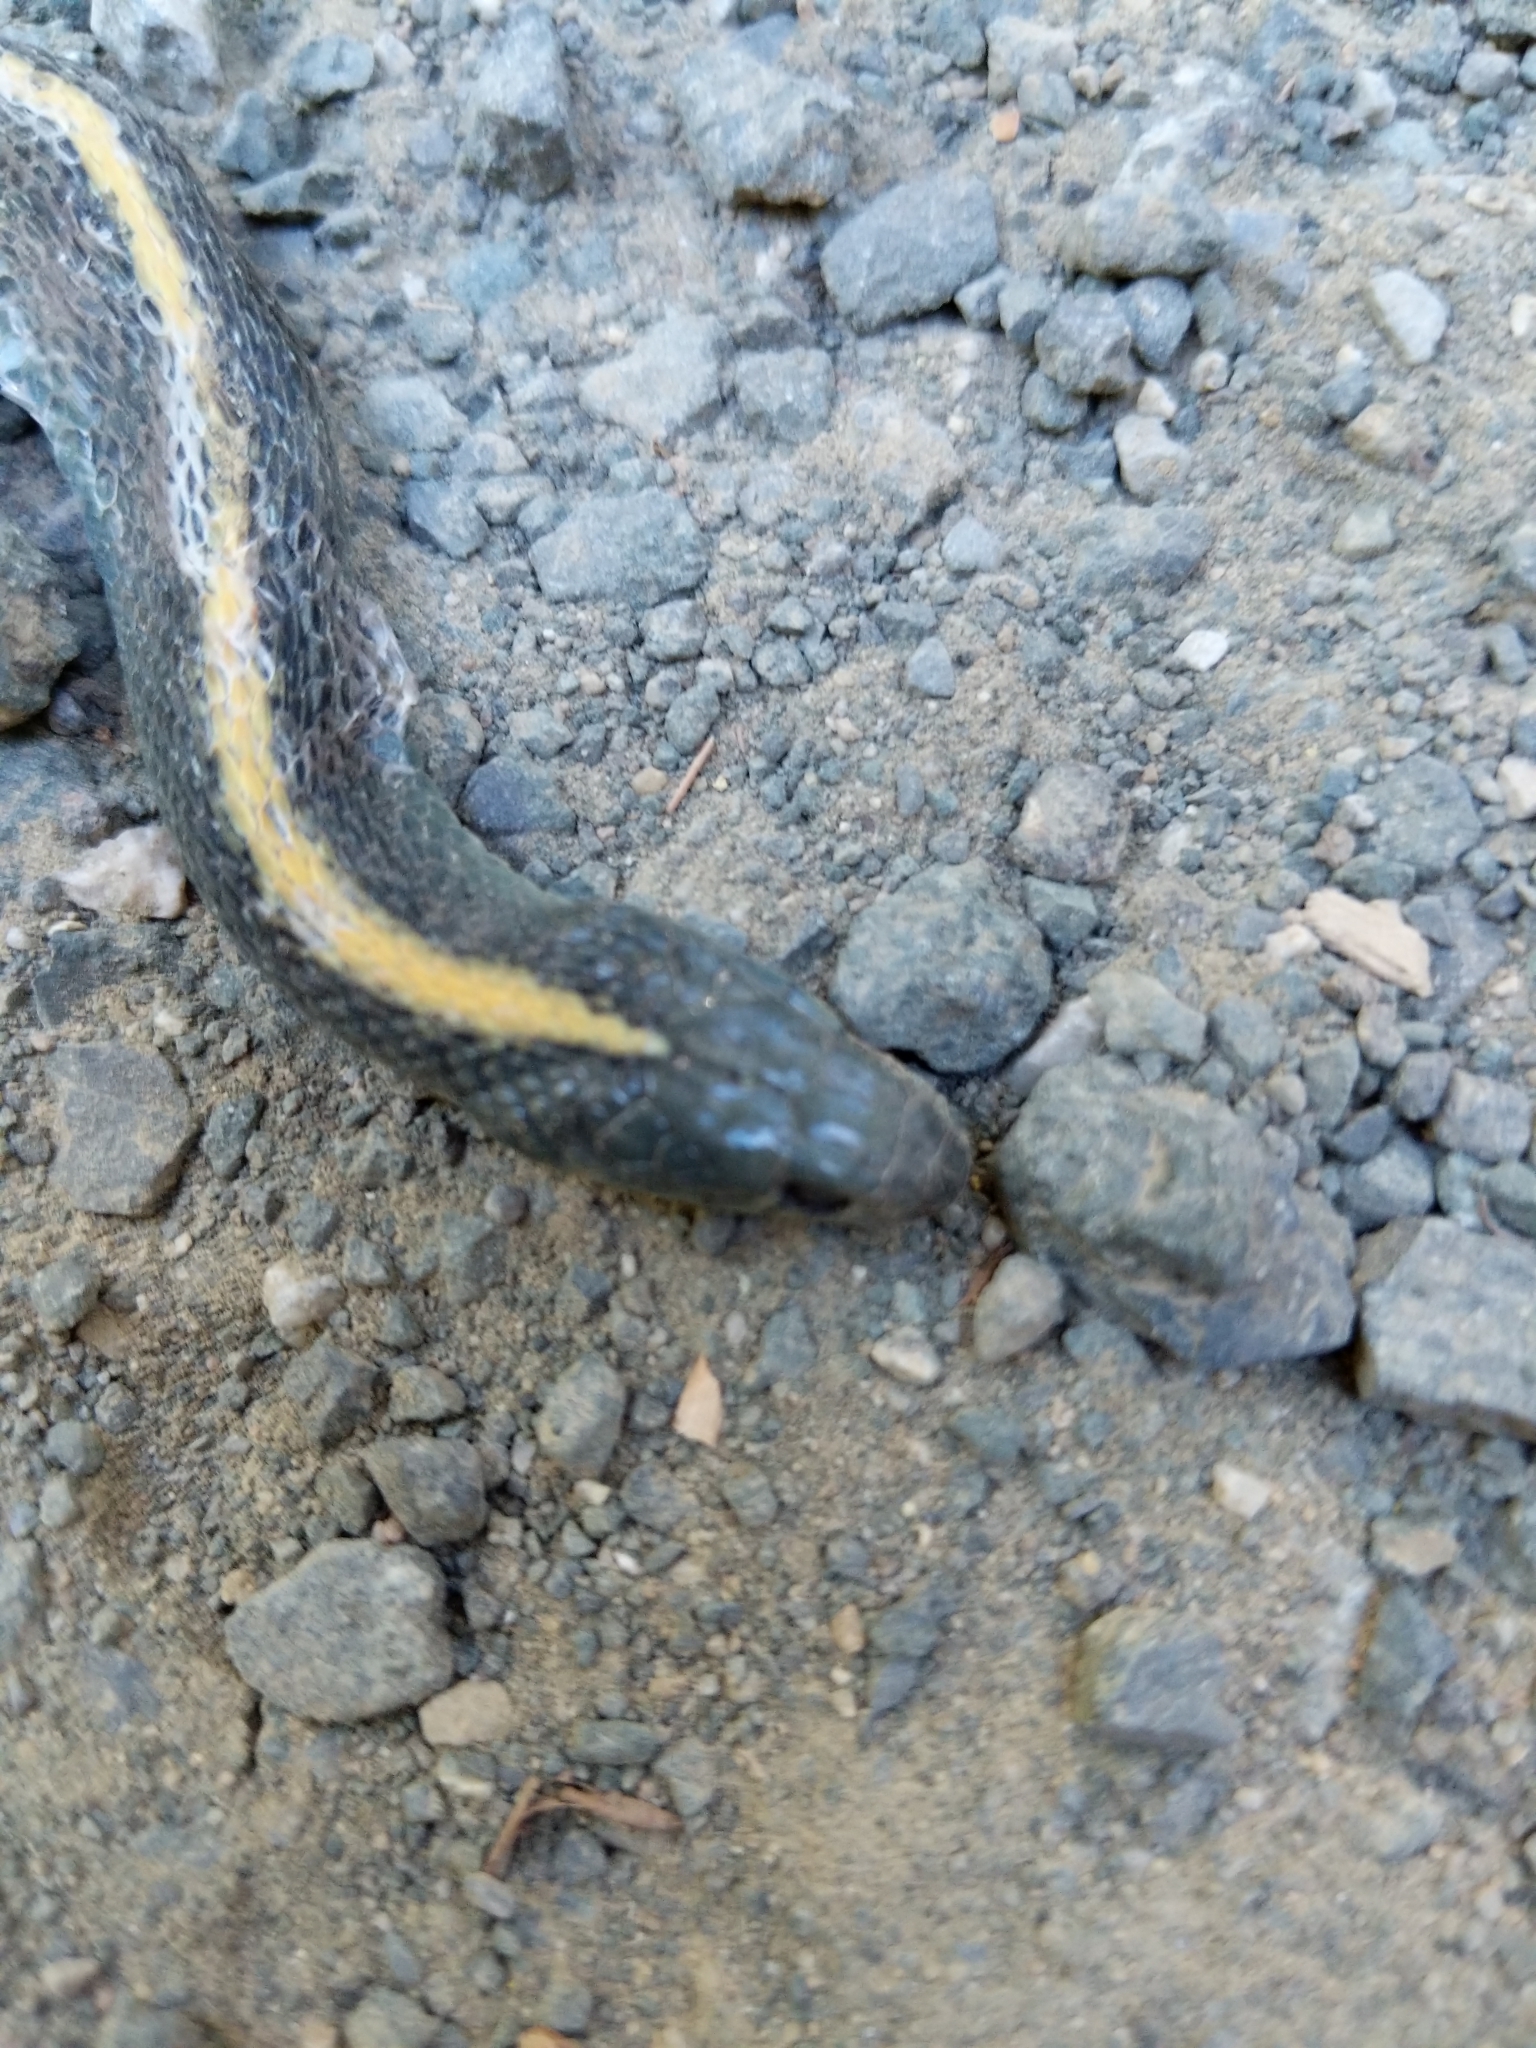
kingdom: Animalia
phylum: Chordata
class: Squamata
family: Colubridae
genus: Thamnophis
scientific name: Thamnophis atratus
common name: Pacific coast aquatic garter snake
